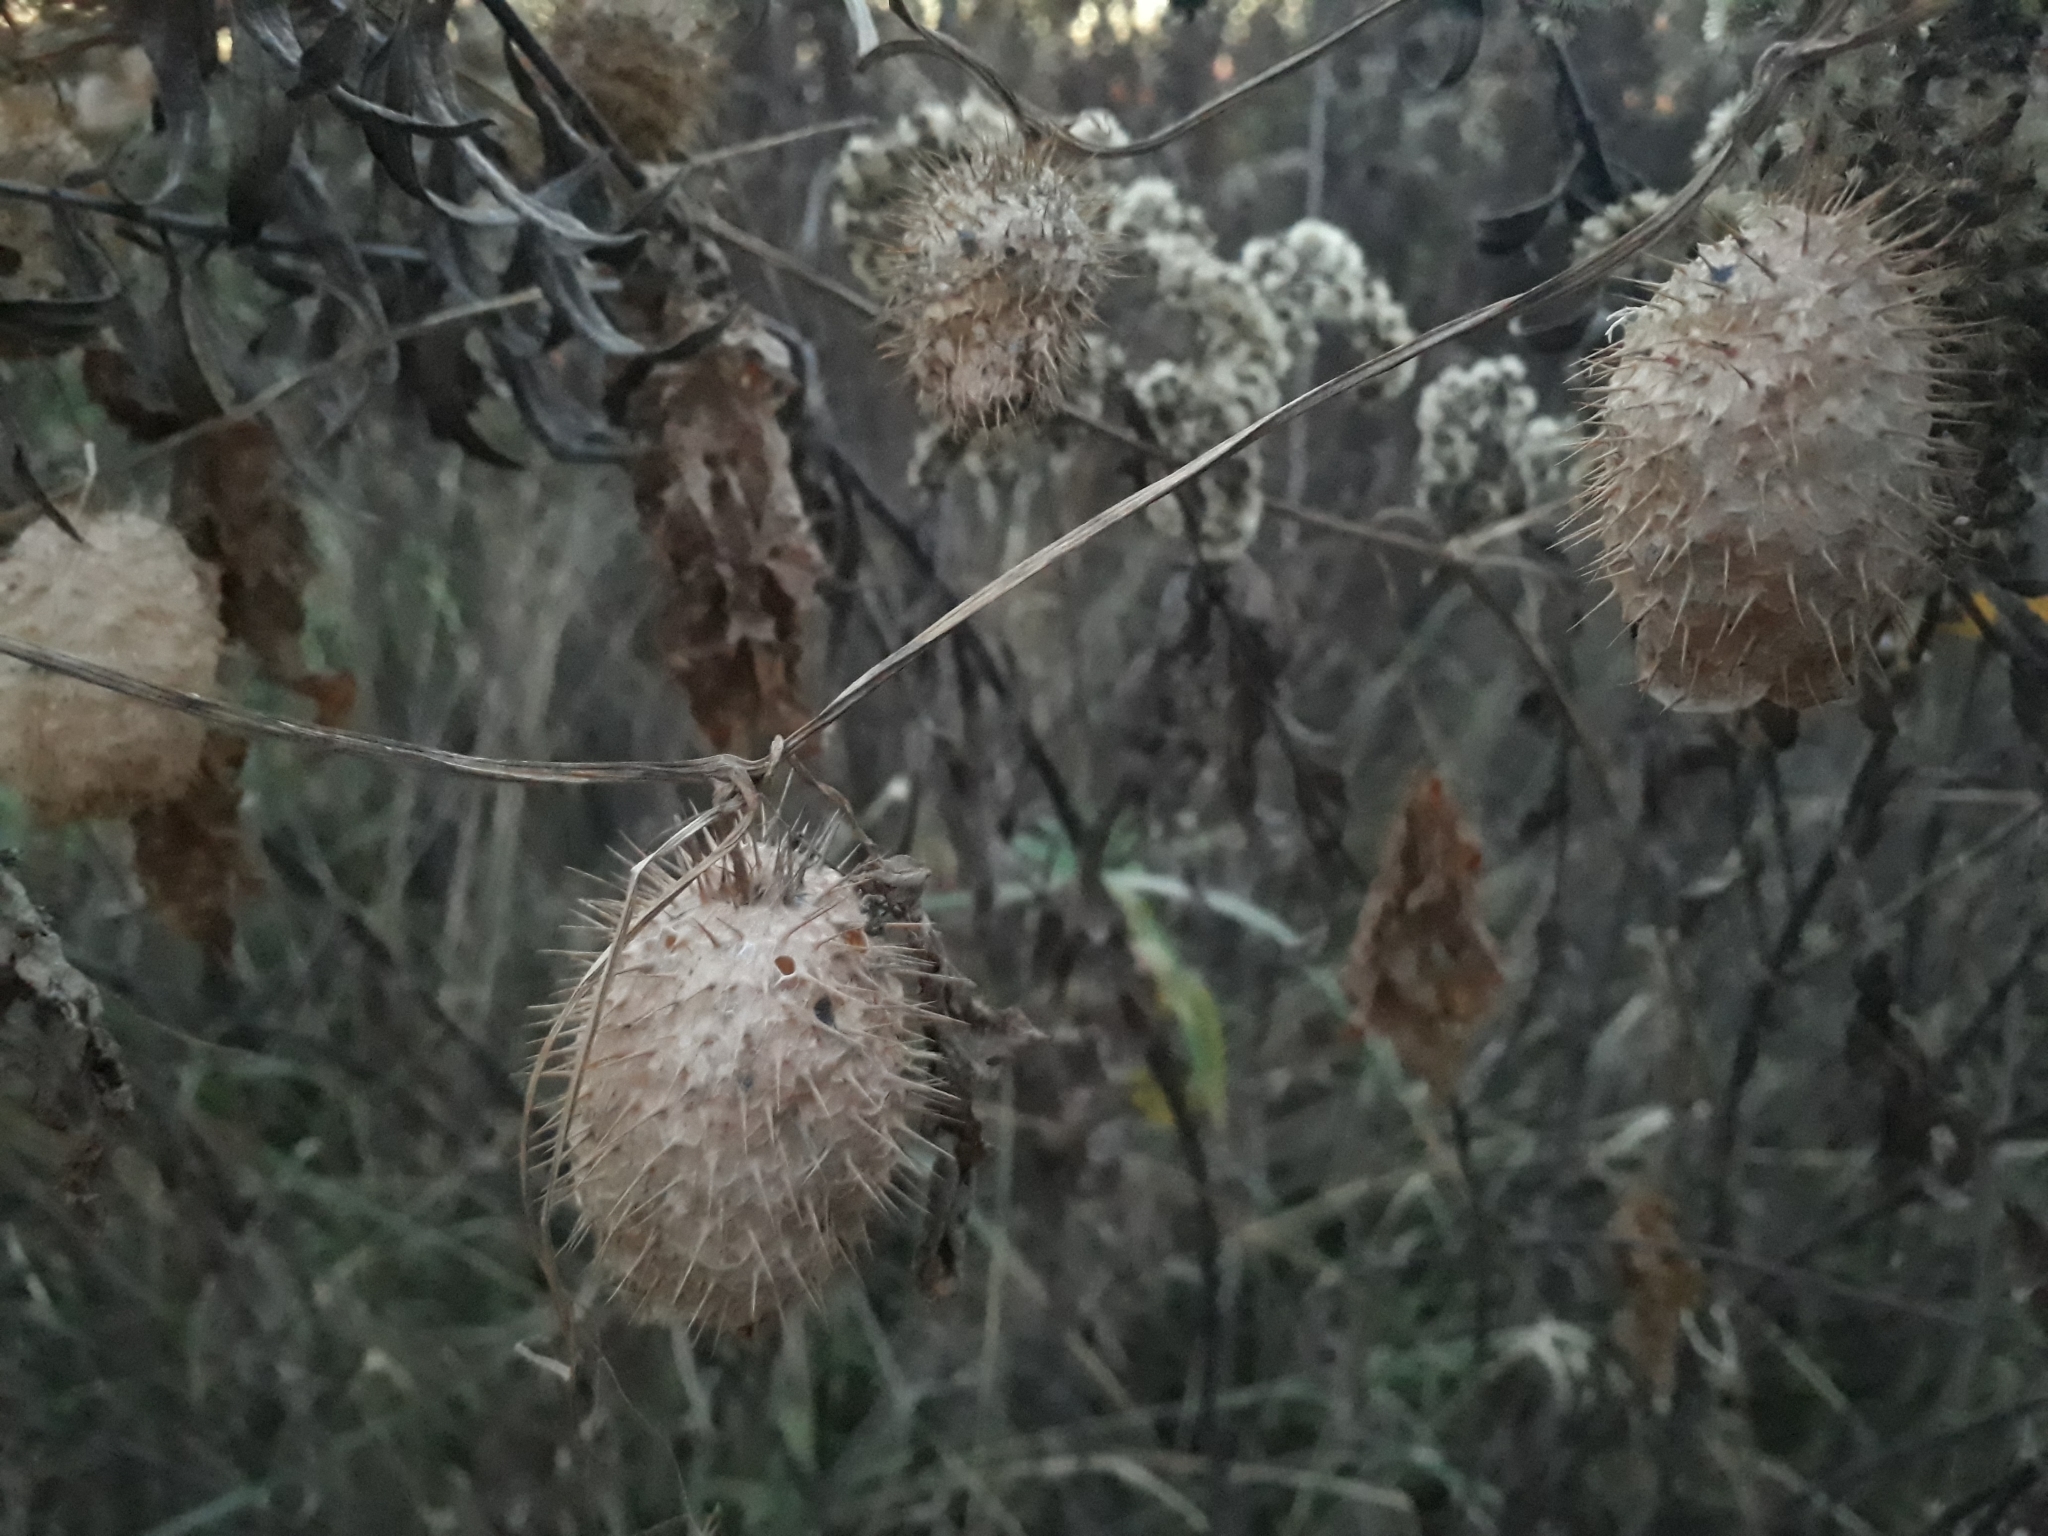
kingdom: Plantae
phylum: Tracheophyta
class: Magnoliopsida
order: Cucurbitales
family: Cucurbitaceae
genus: Echinocystis
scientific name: Echinocystis lobata
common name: Wild cucumber
